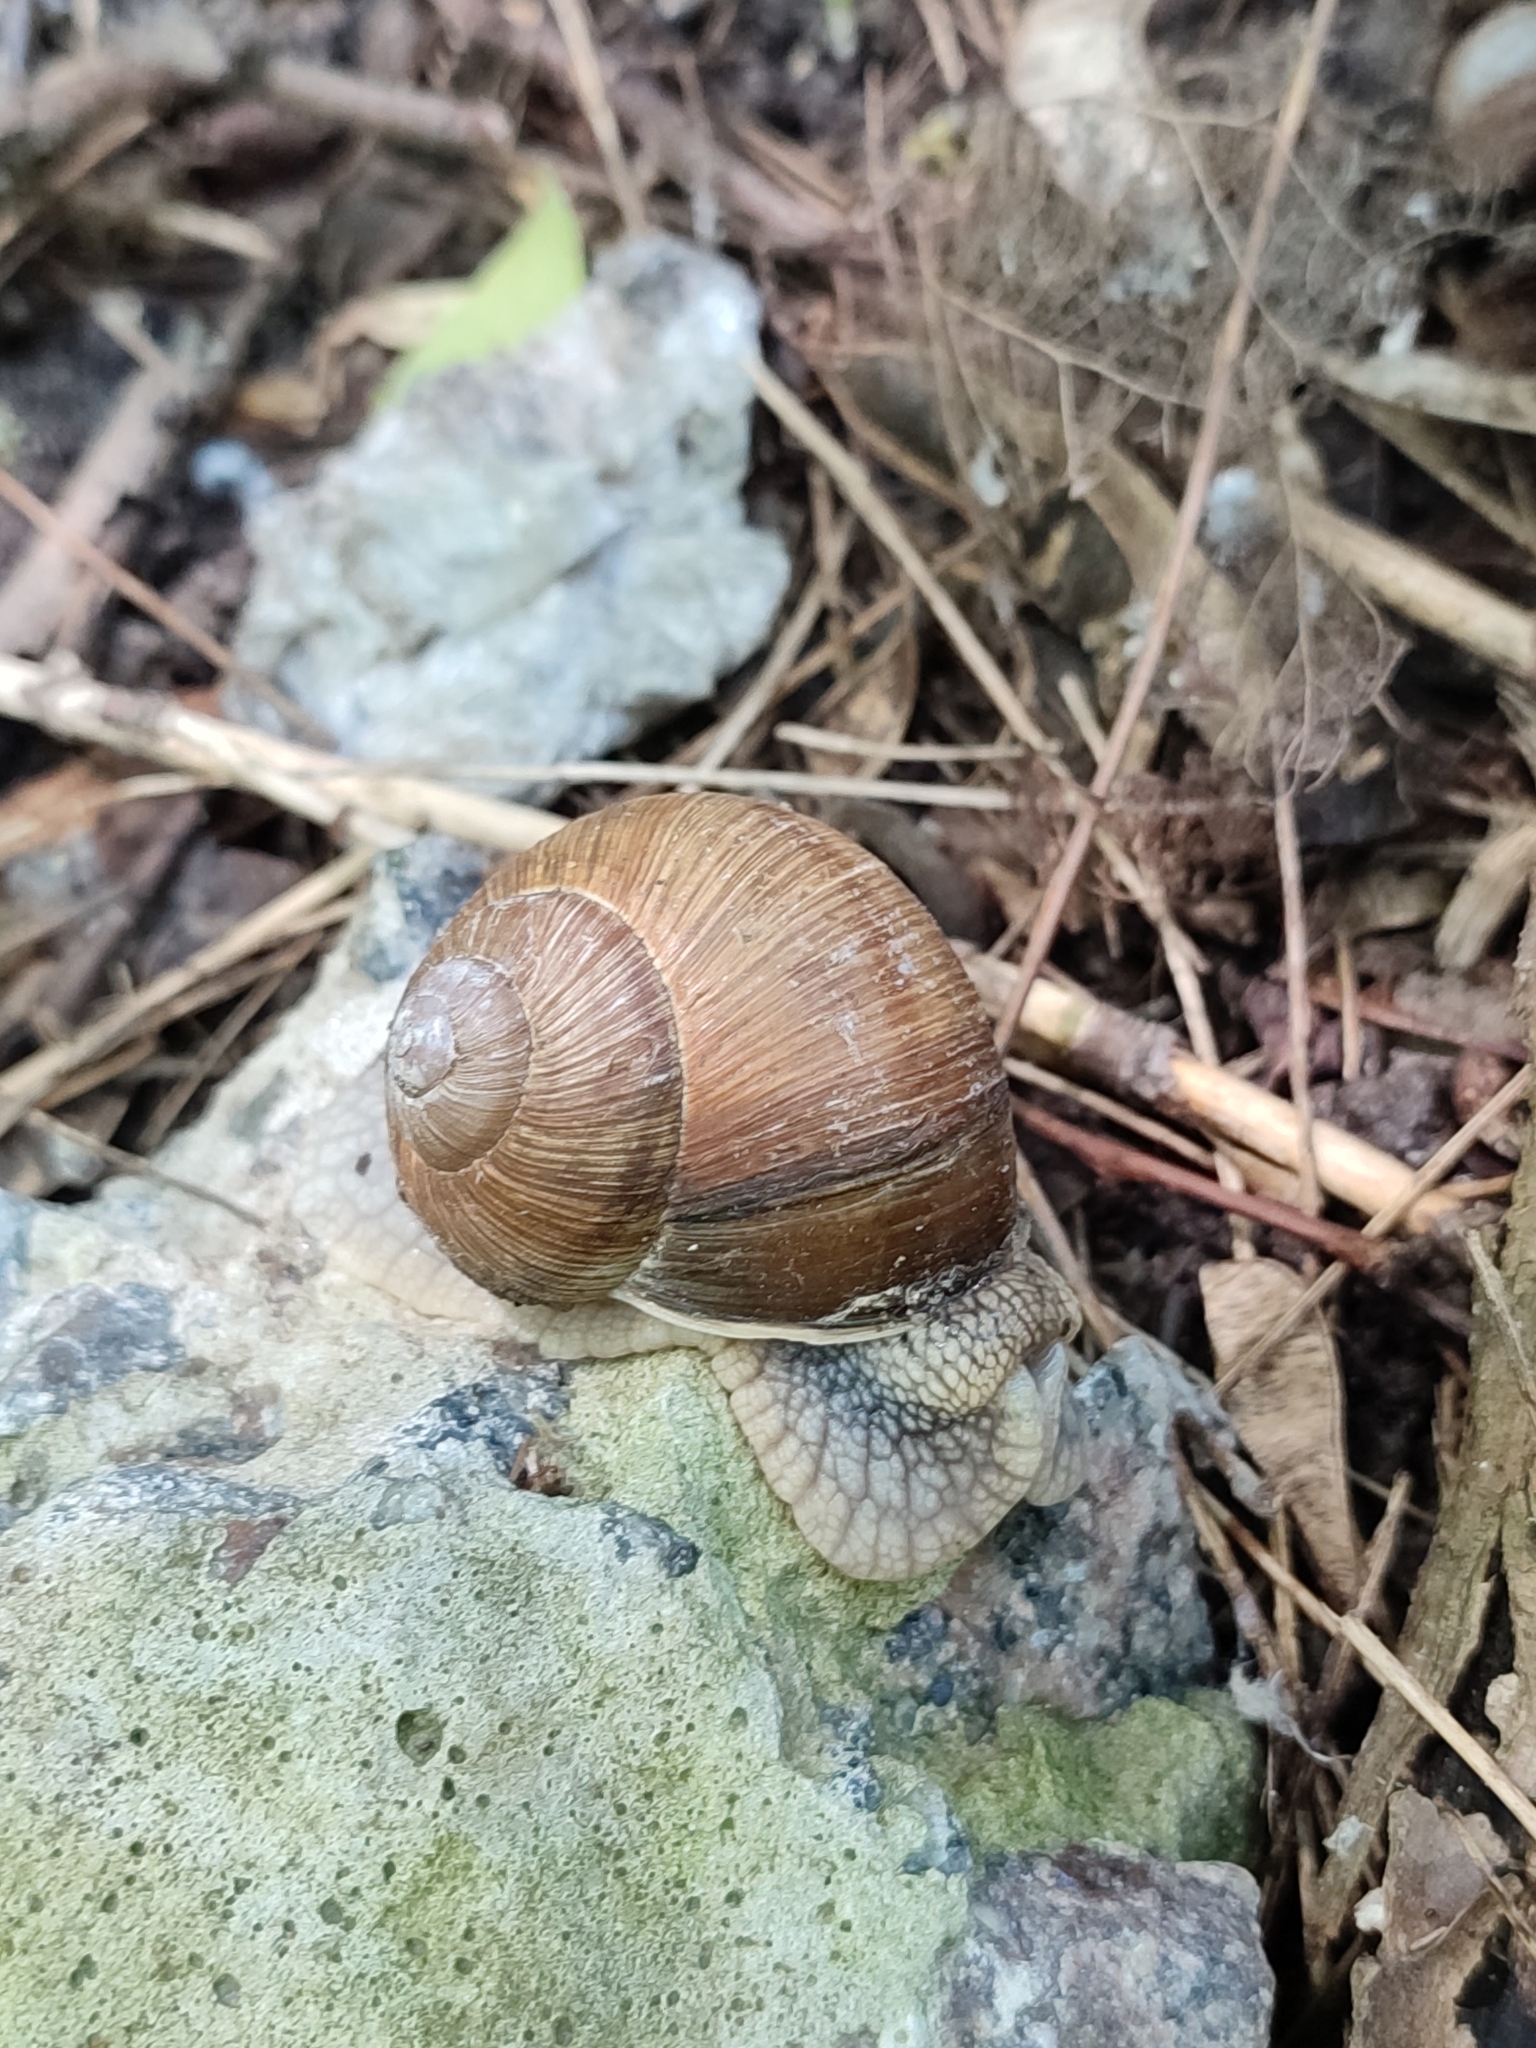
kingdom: Animalia
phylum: Mollusca
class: Gastropoda
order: Stylommatophora
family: Helicidae
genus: Helix
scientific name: Helix pomatia
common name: Roman snail
